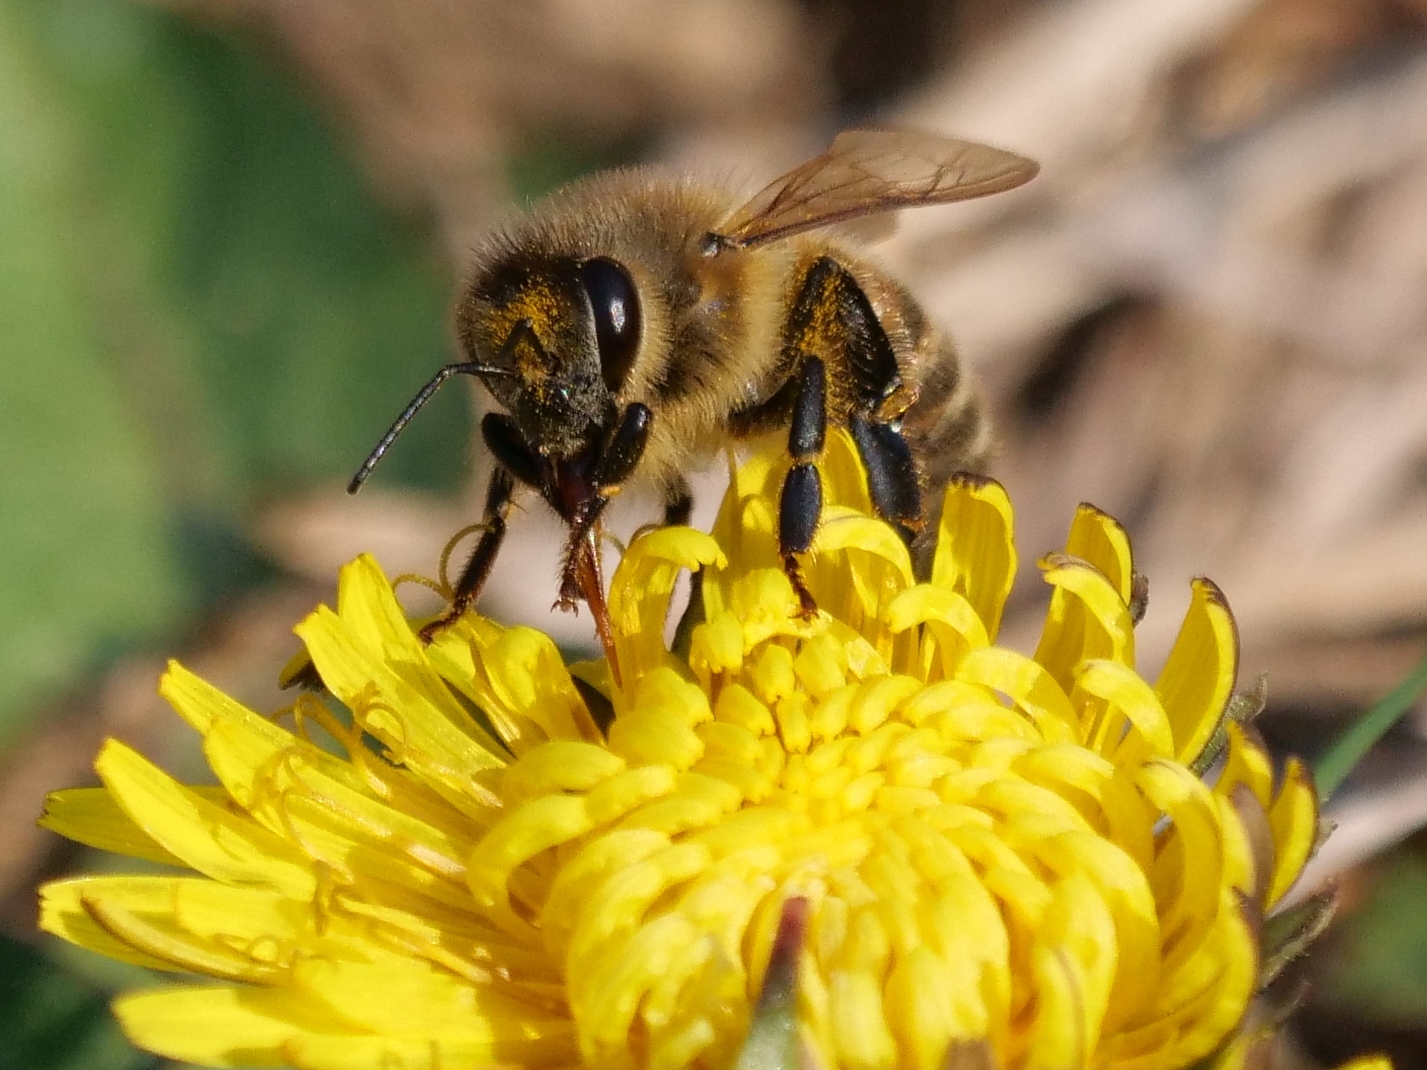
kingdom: Animalia
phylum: Arthropoda
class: Insecta
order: Hymenoptera
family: Apidae
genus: Apis
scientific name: Apis mellifera
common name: Honey bee
